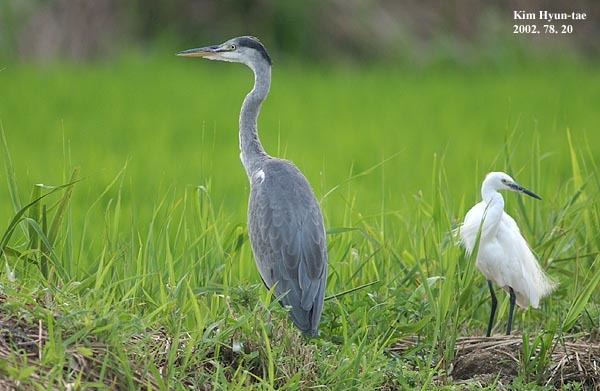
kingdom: Animalia
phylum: Chordata
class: Aves
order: Pelecaniformes
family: Ardeidae
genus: Ardea
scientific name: Ardea cinerea
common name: Grey heron
